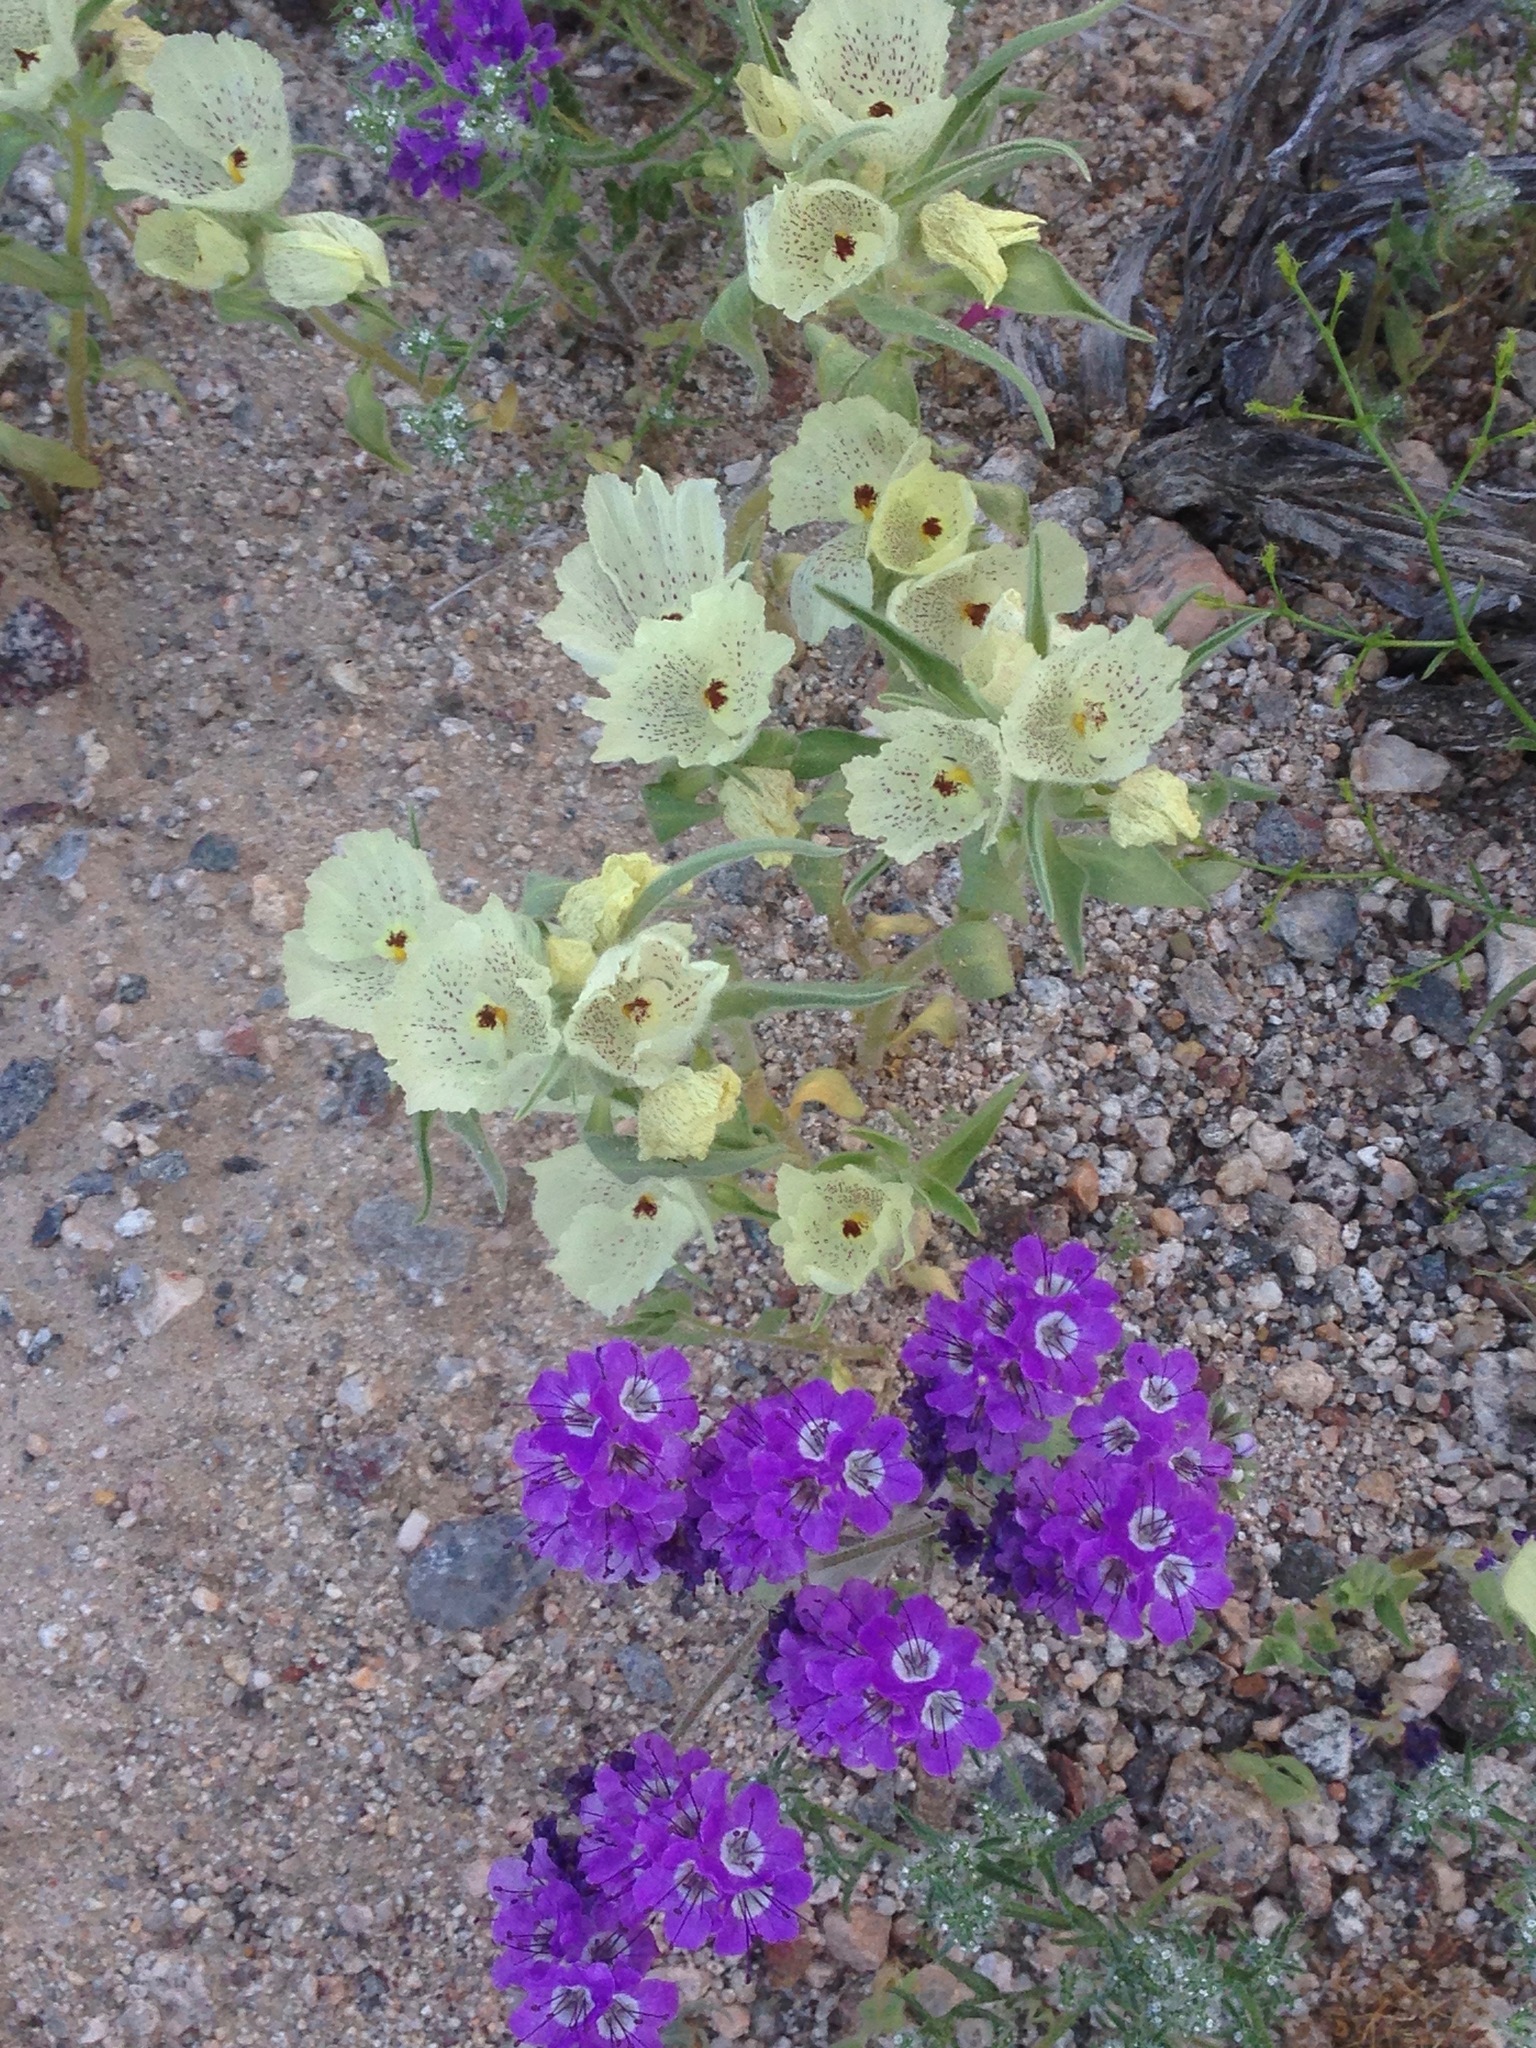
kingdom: Plantae
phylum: Tracheophyta
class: Magnoliopsida
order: Lamiales
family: Plantaginaceae
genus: Mohavea
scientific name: Mohavea confertiflora
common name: Ghost flower
